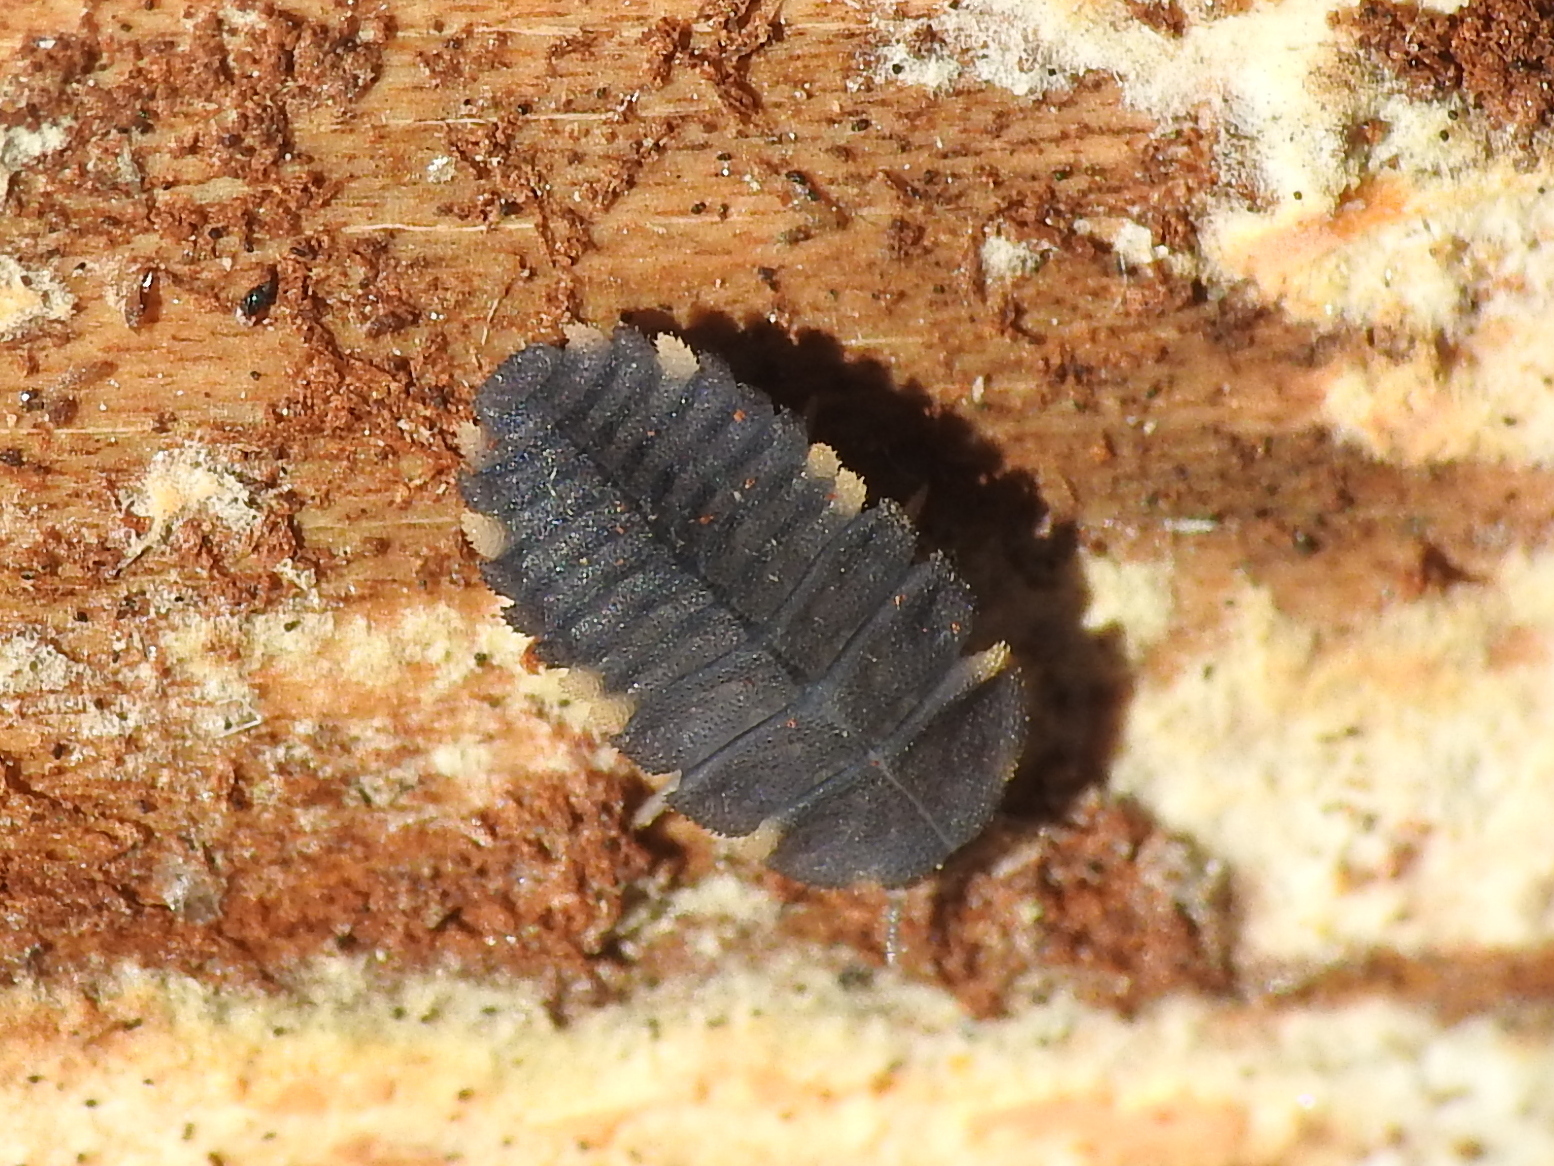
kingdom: Animalia
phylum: Arthropoda
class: Insecta
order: Coleoptera
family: Endomychidae
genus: Endomychus
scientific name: Endomychus coccineus
